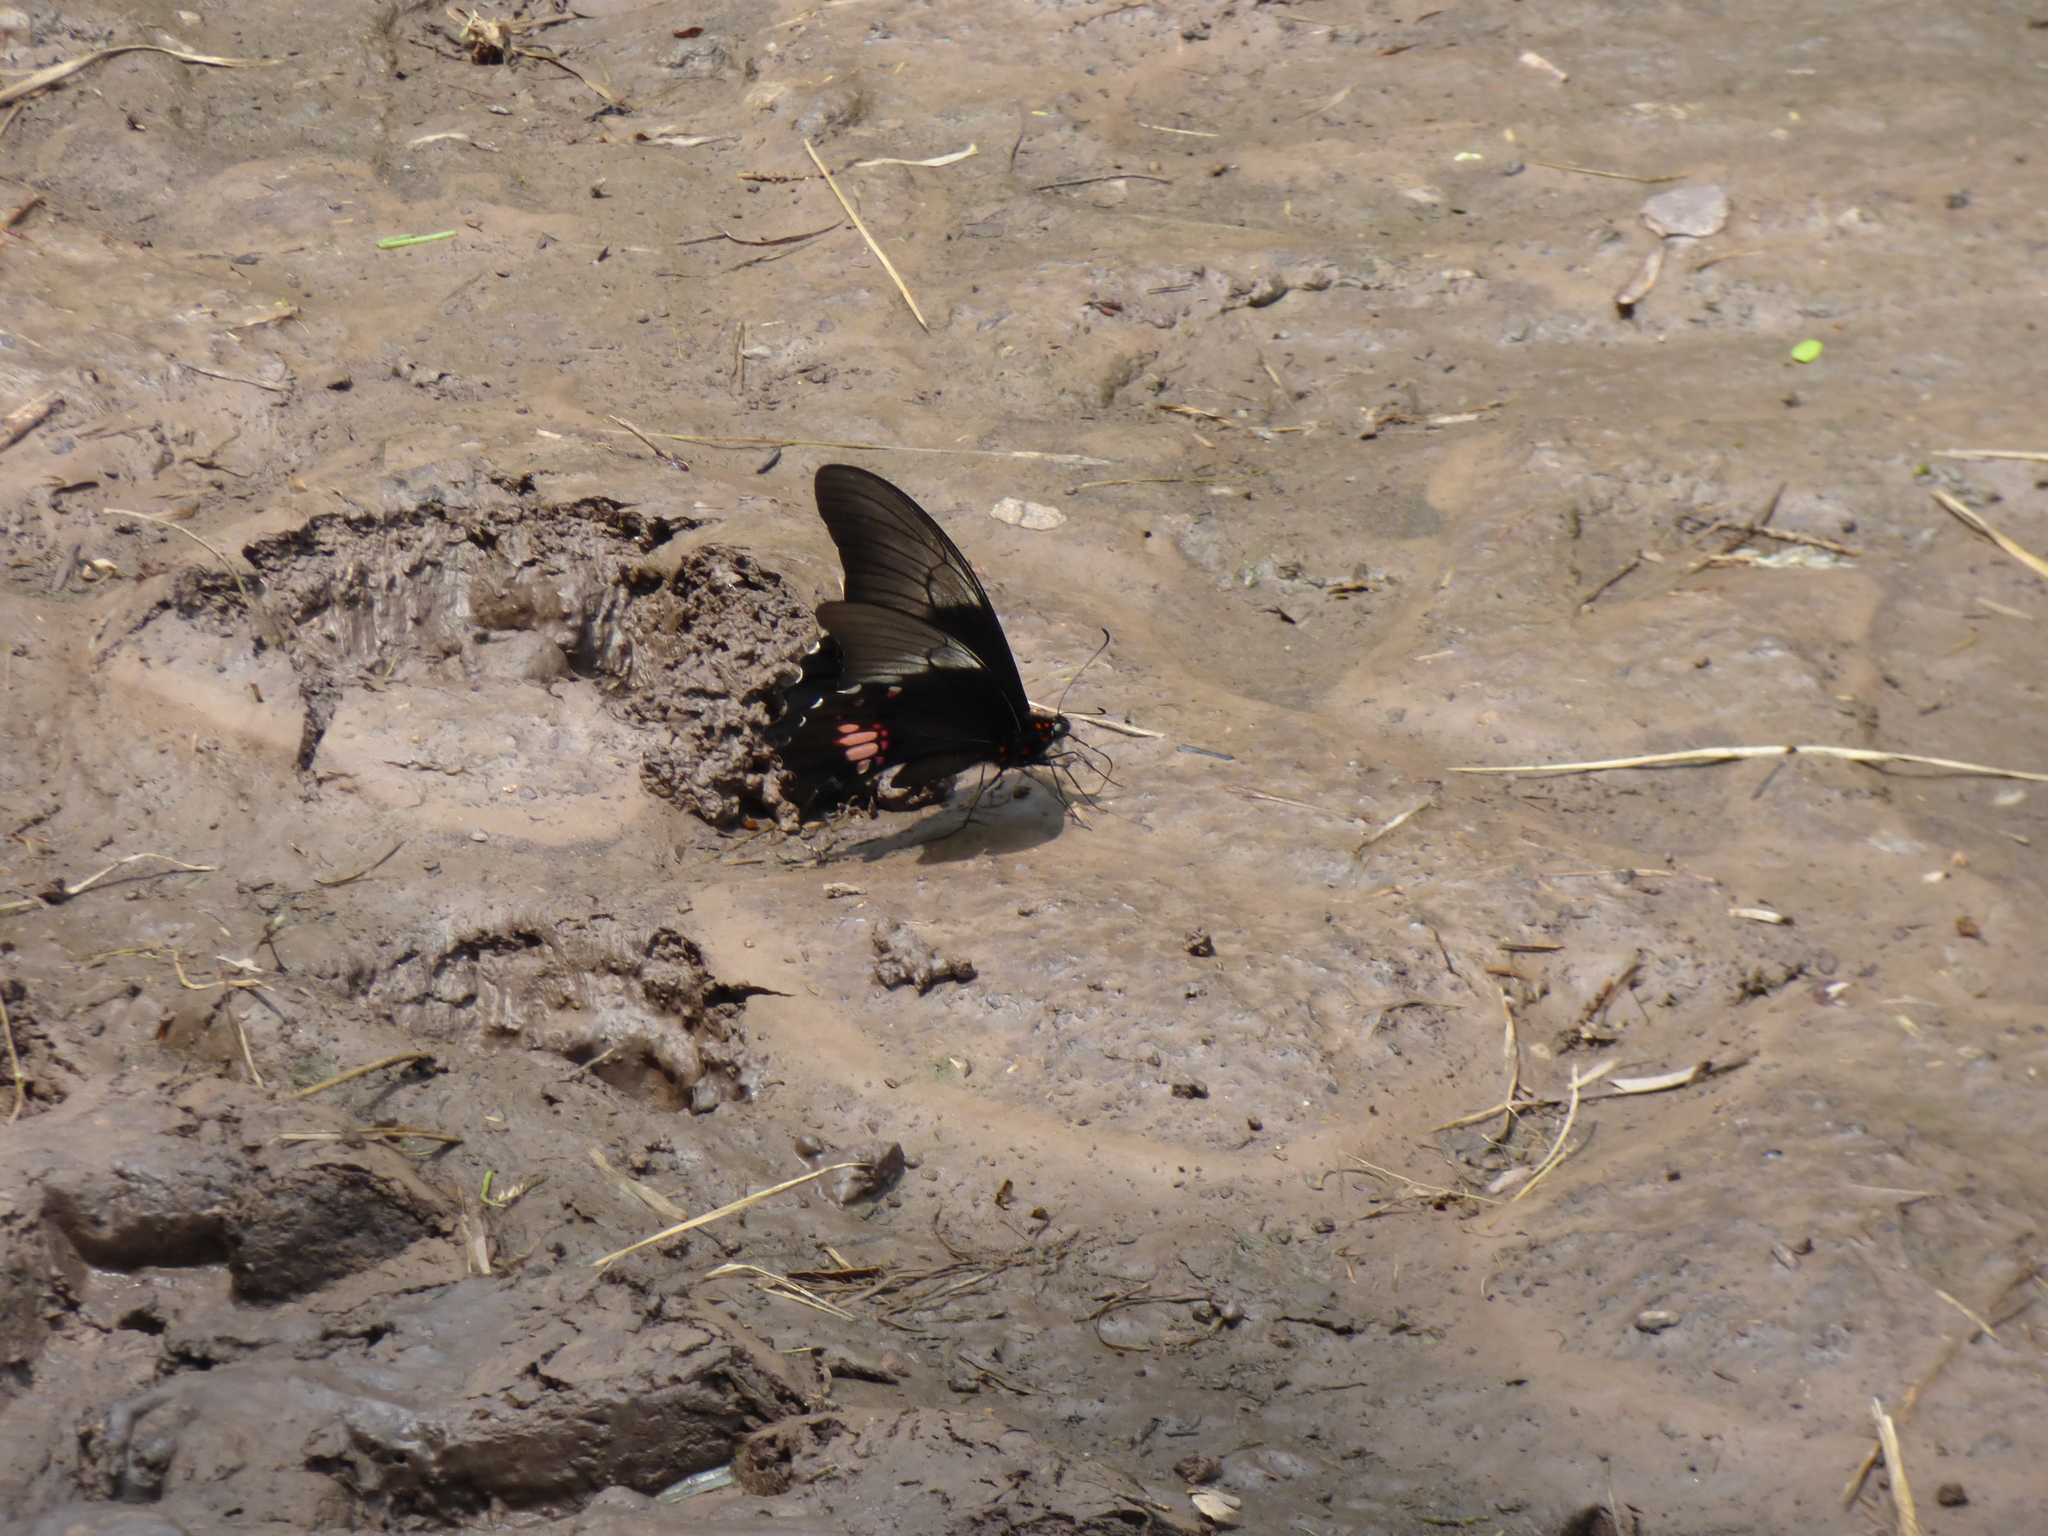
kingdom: Animalia
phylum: Arthropoda
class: Insecta
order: Lepidoptera
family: Papilionidae
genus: Papilio
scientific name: Papilio anchisiades
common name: Idaes swallowtail
